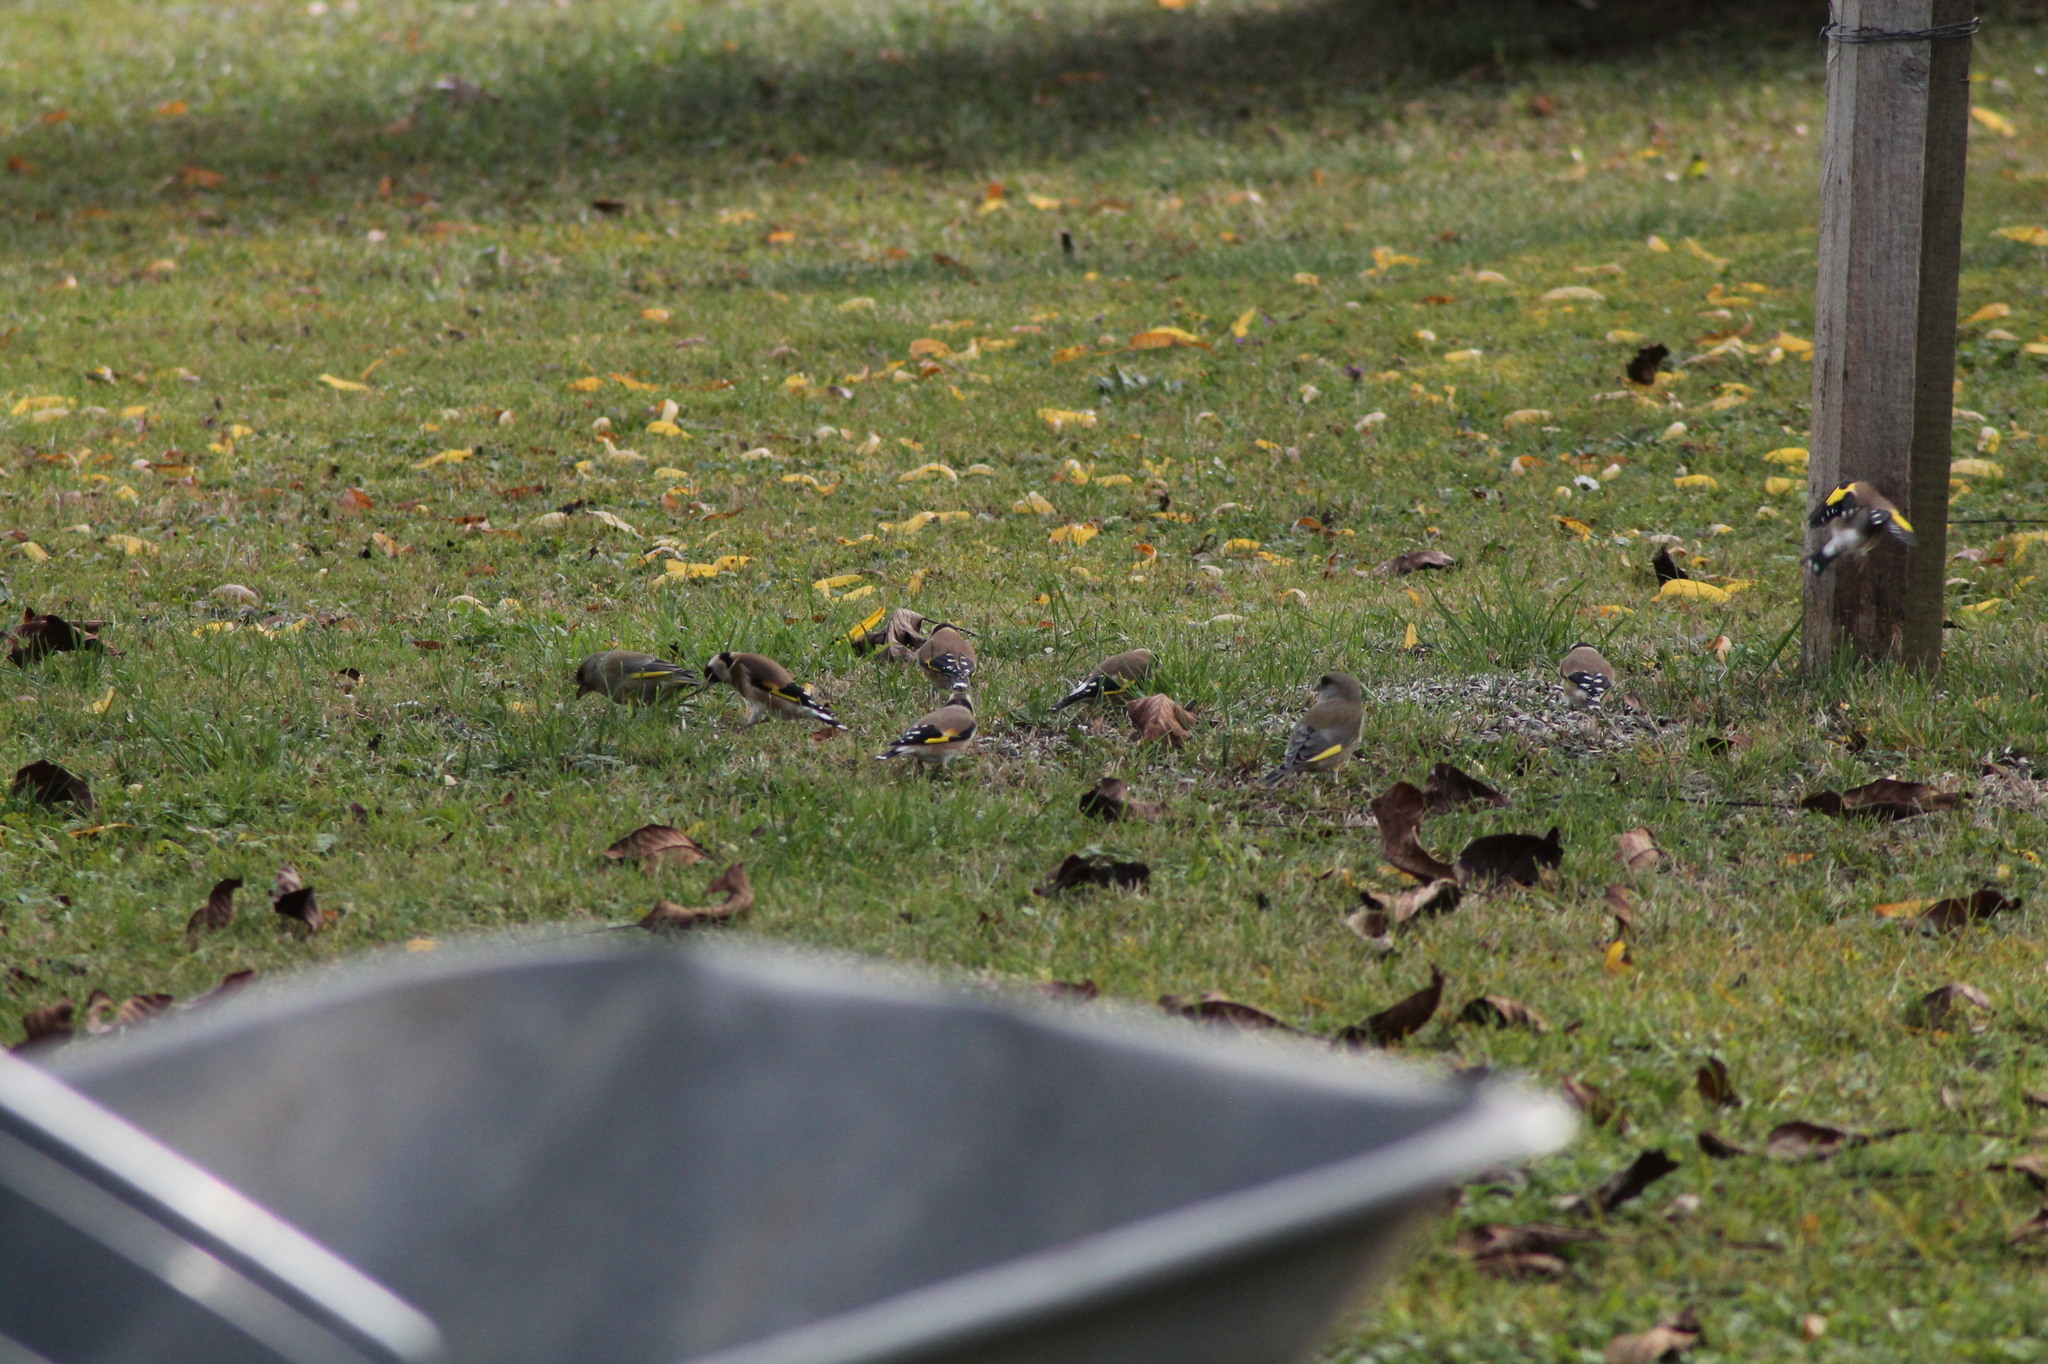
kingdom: Animalia
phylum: Chordata
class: Aves
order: Passeriformes
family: Fringillidae
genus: Carduelis
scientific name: Carduelis carduelis
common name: European goldfinch
